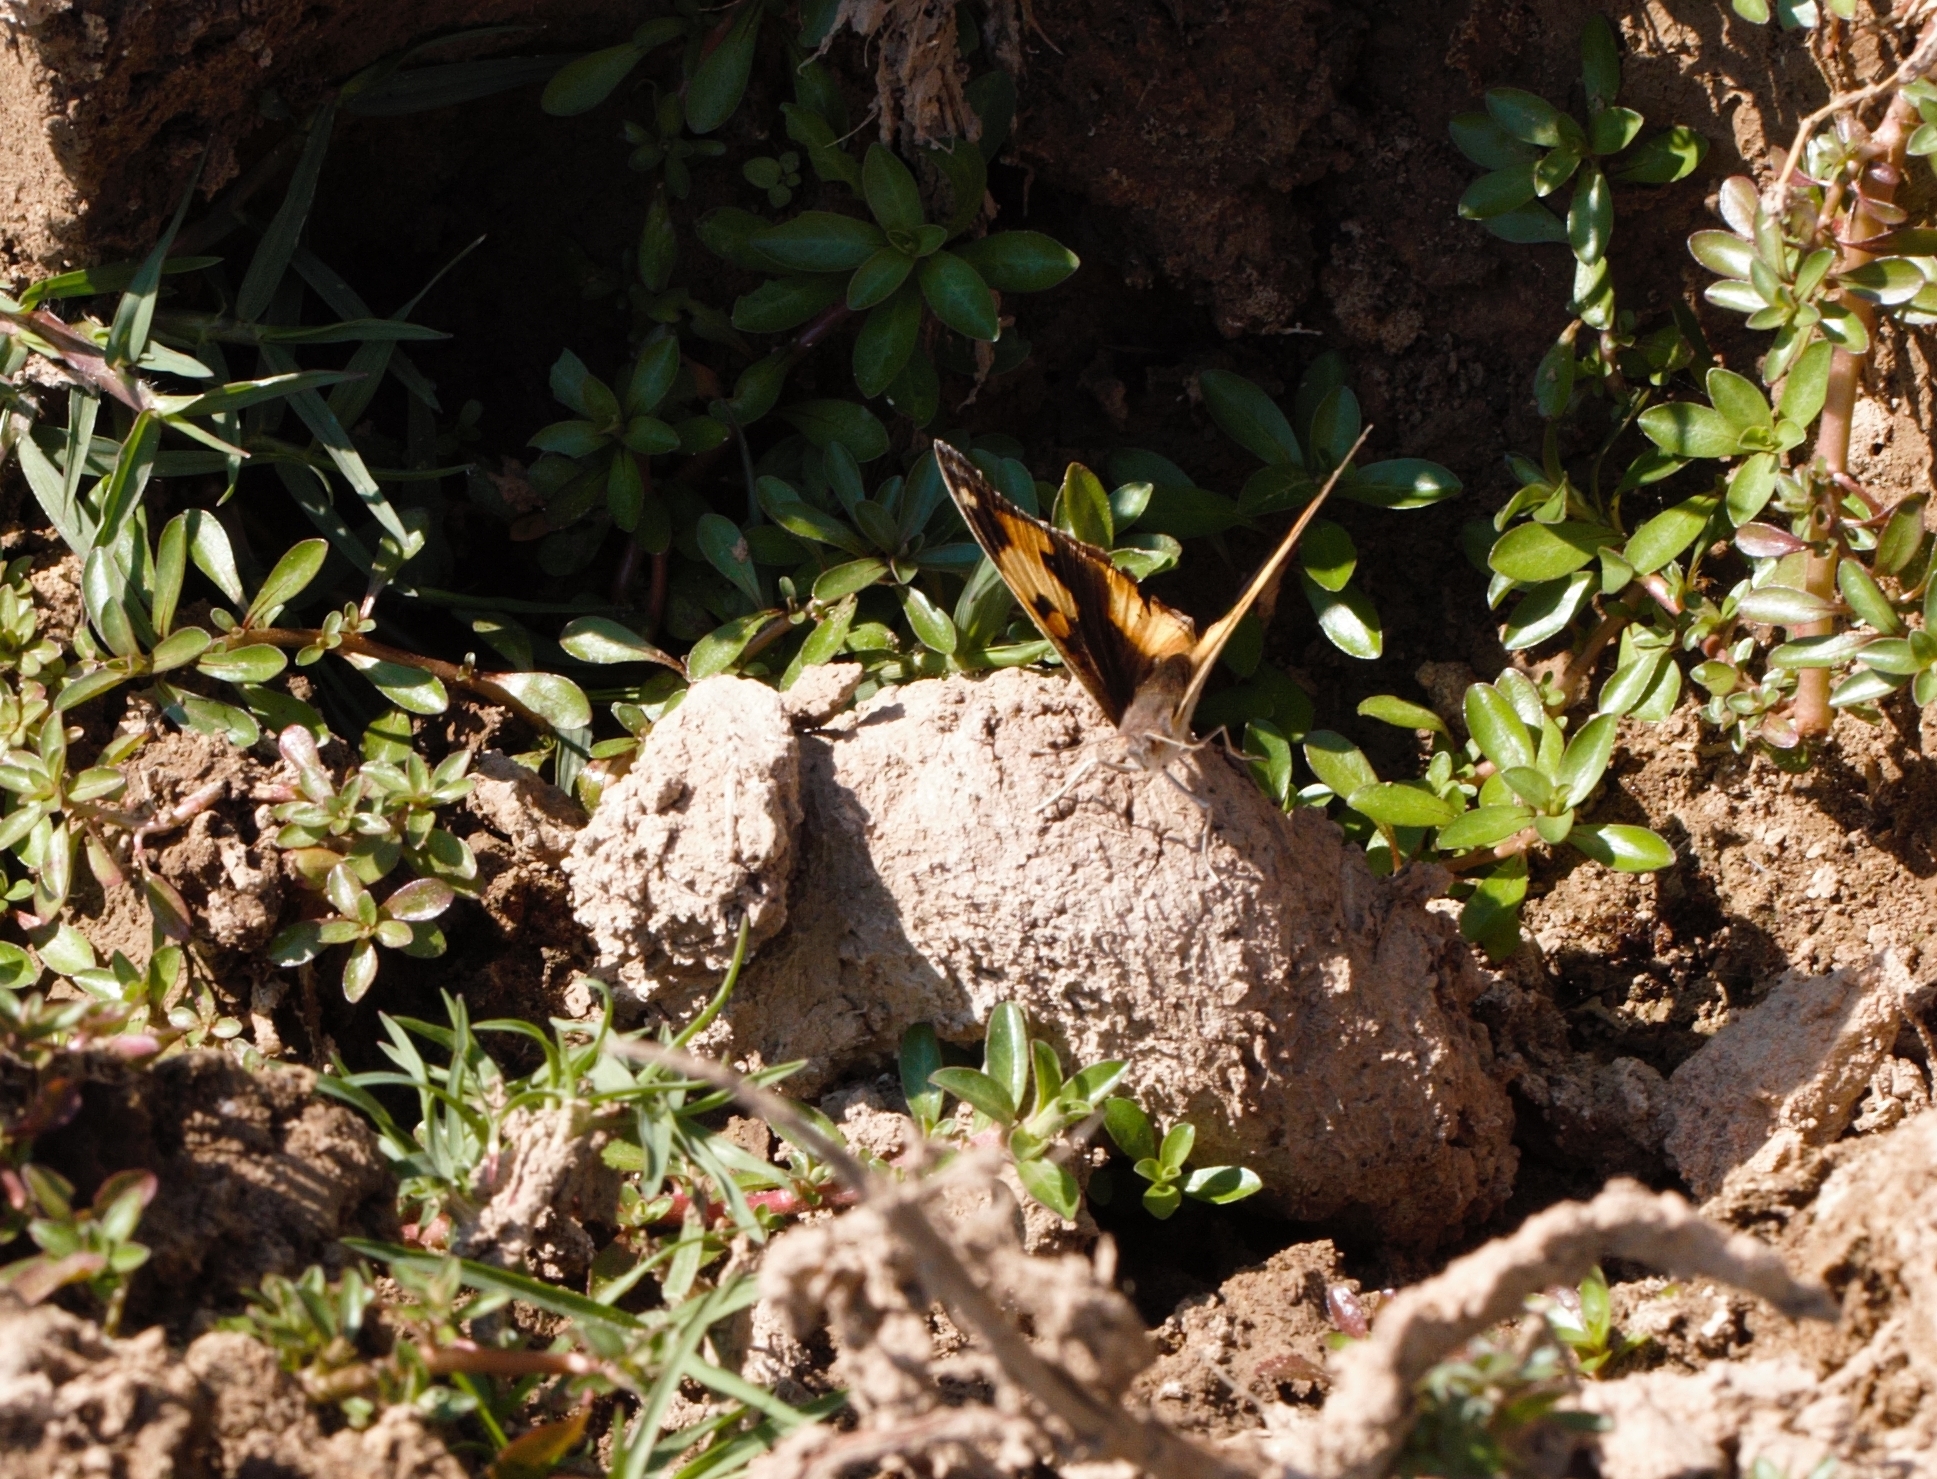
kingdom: Animalia
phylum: Arthropoda
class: Insecta
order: Lepidoptera
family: Nymphalidae
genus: Junonia
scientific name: Junonia hierta
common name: Yellow pansy
